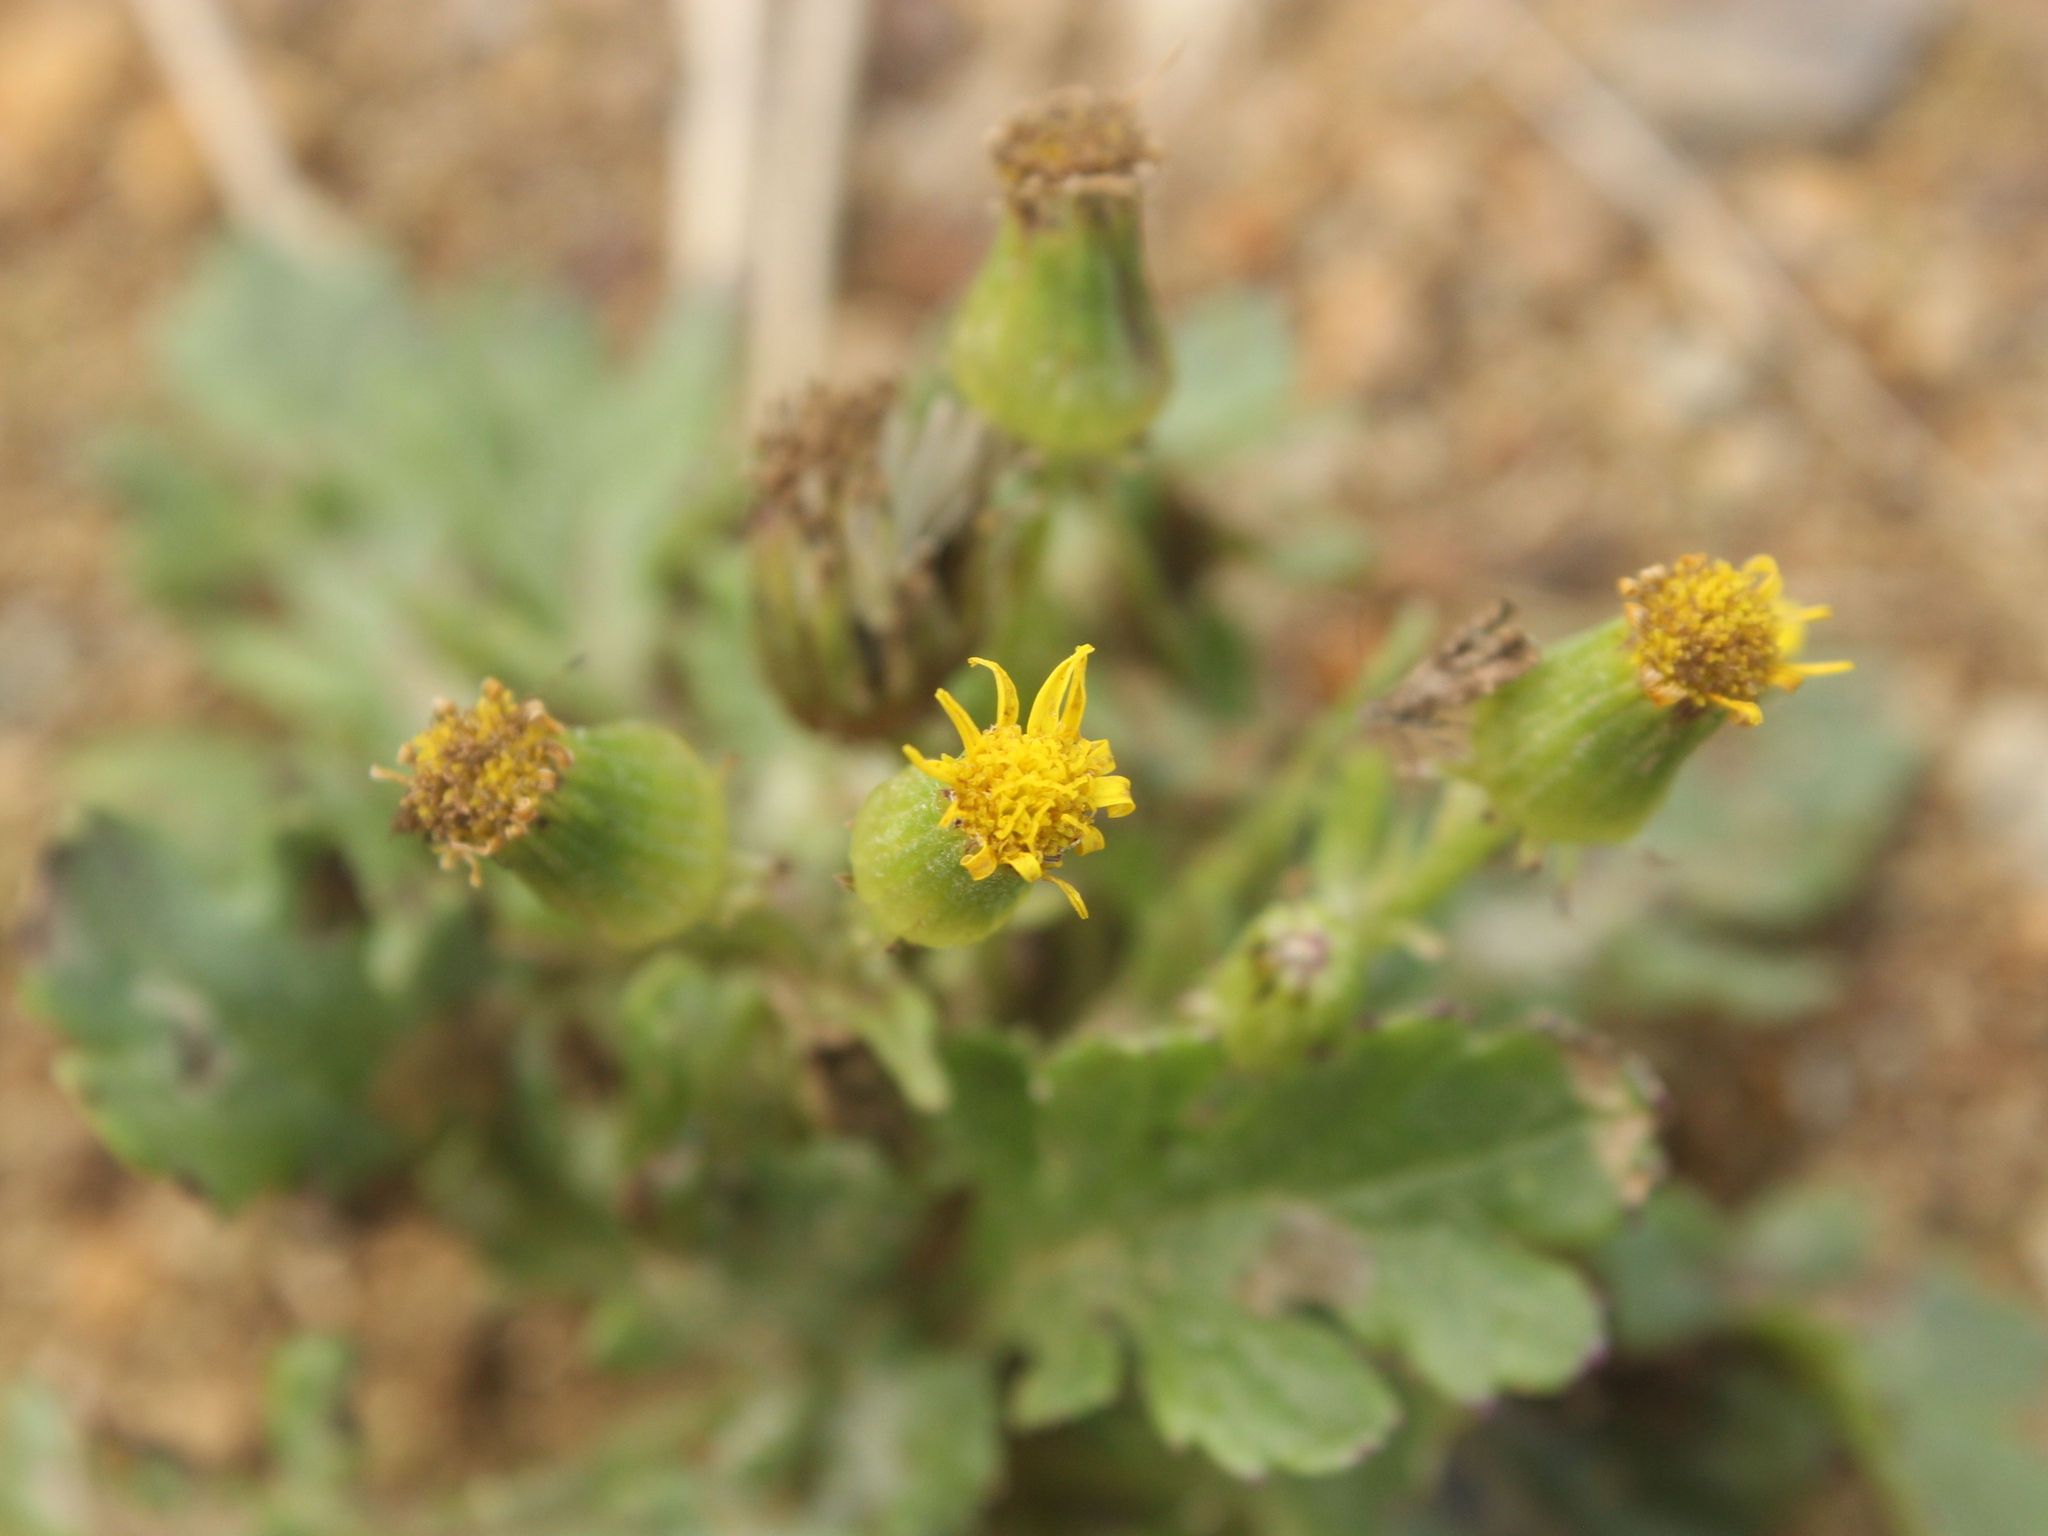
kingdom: Plantae
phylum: Tracheophyta
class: Magnoliopsida
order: Asterales
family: Asteraceae
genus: Senecio
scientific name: Senecio radiolatus
